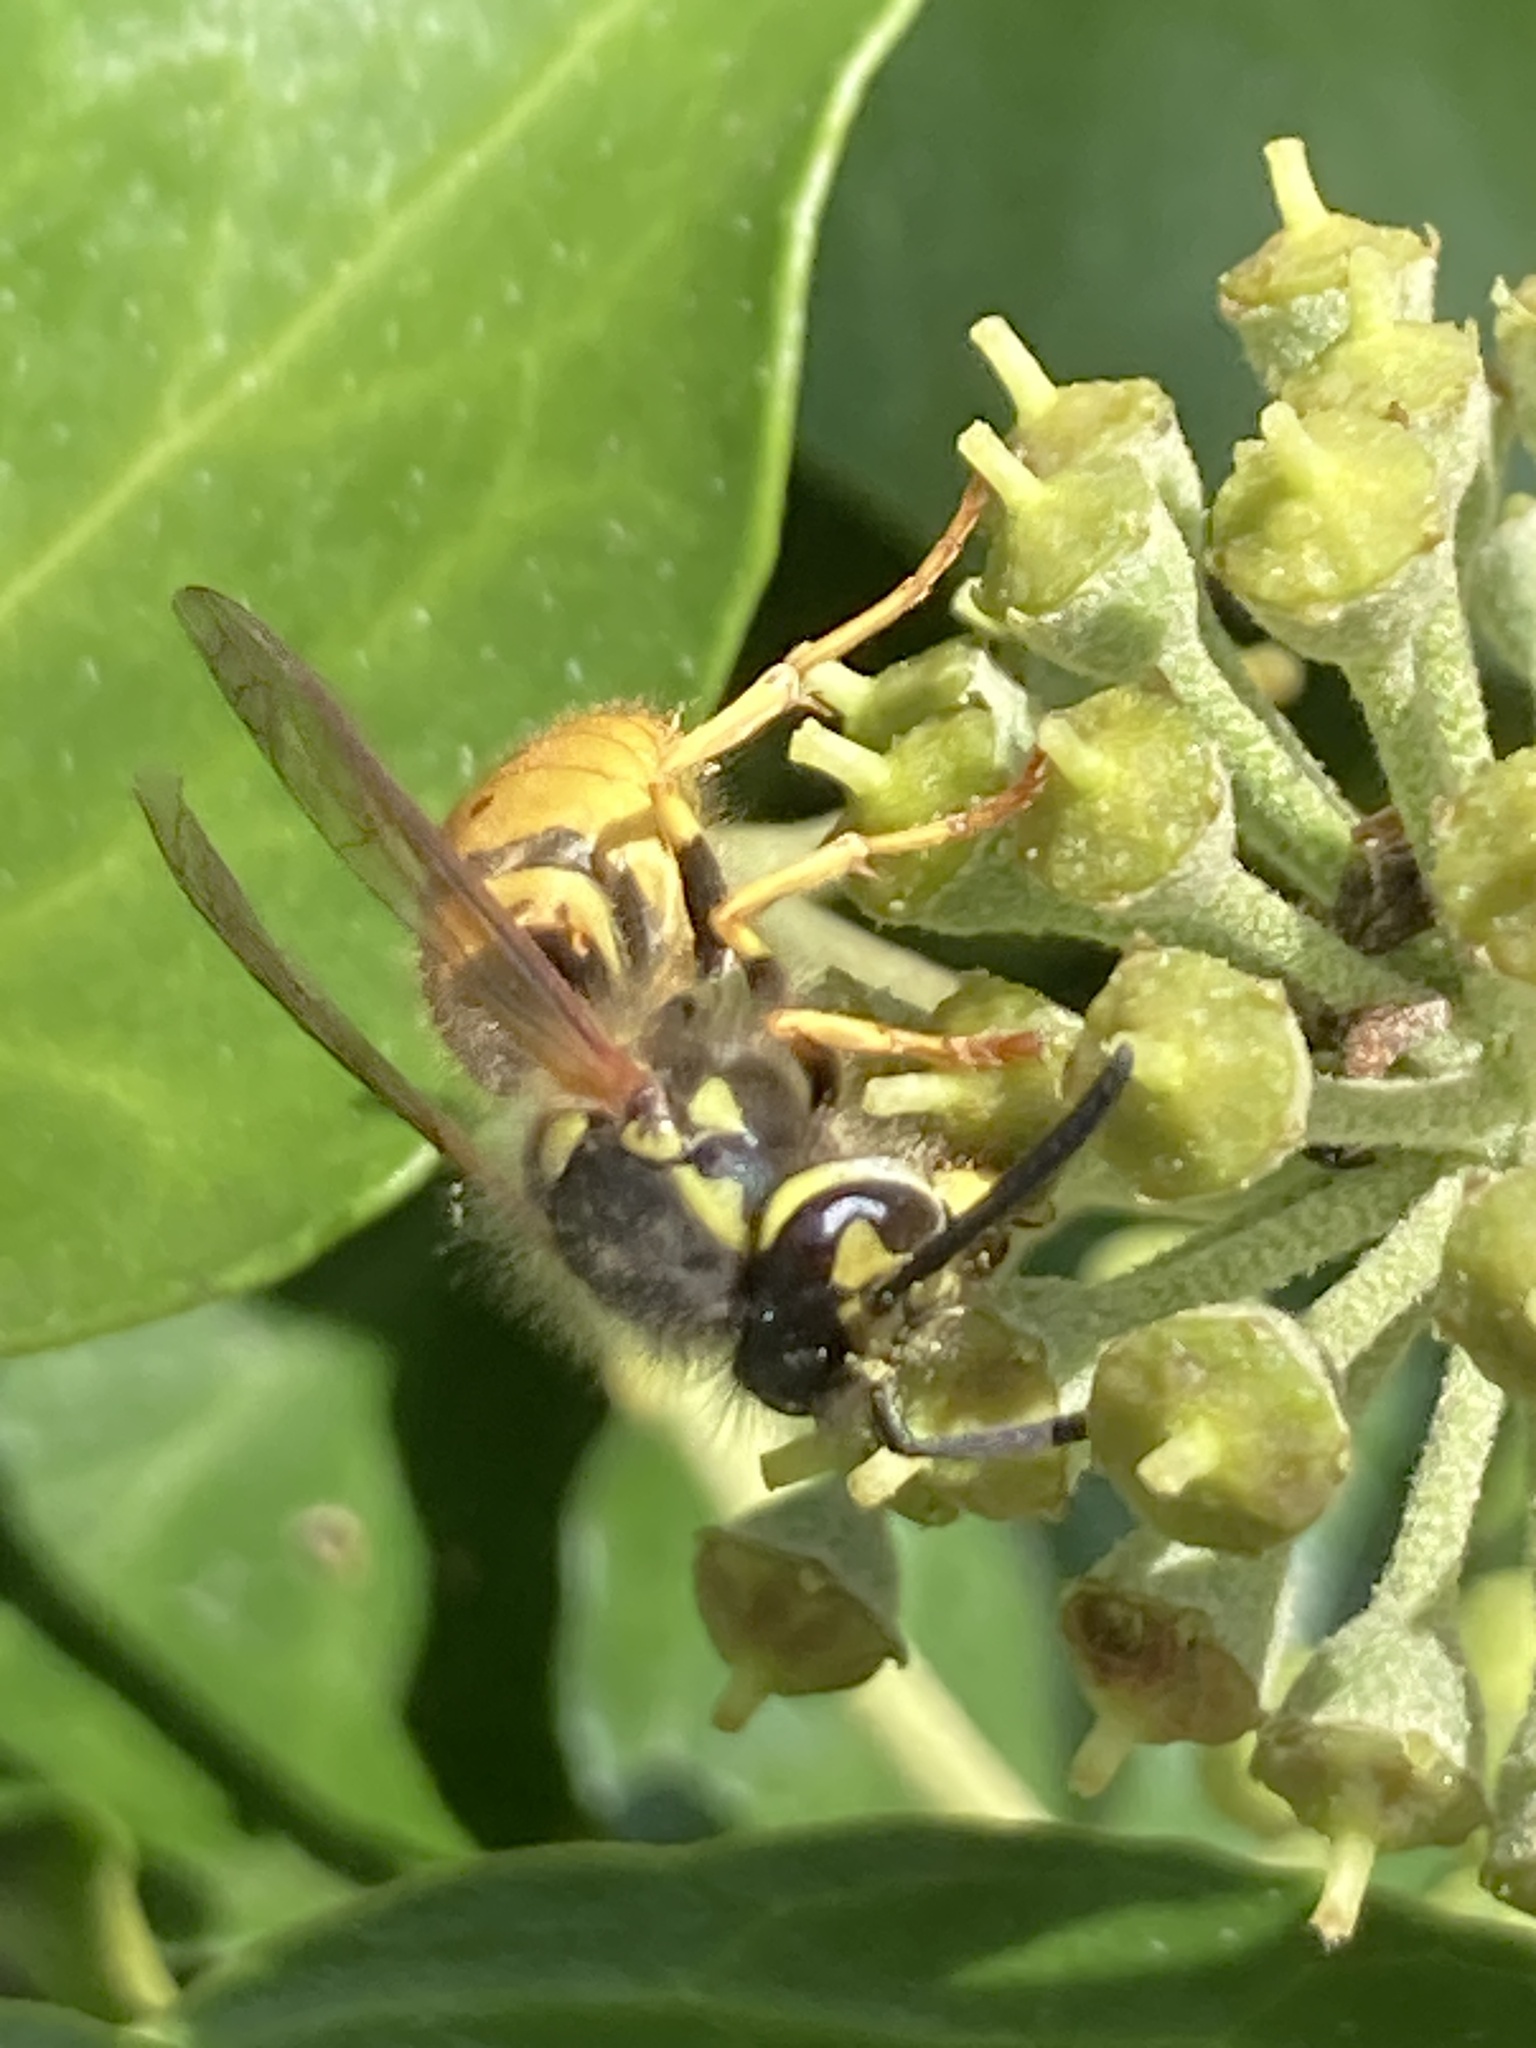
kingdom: Animalia
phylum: Arthropoda
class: Insecta
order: Hymenoptera
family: Vespidae
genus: Vespula
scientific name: Vespula germanica
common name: German wasp
